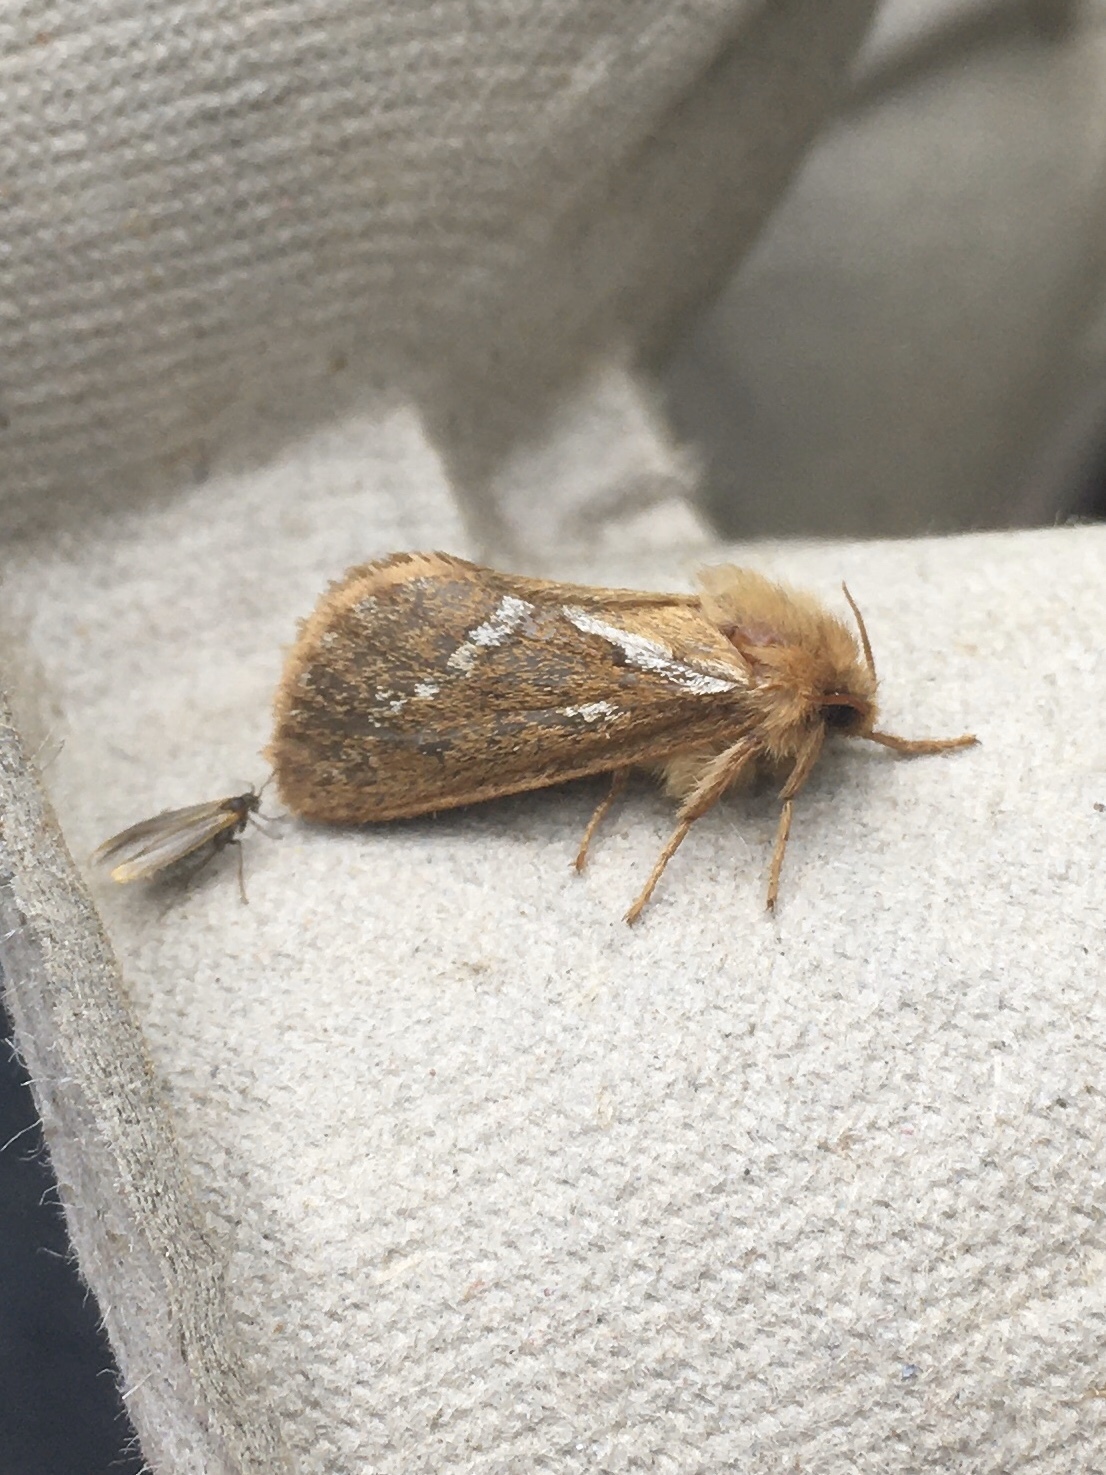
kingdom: Animalia
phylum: Arthropoda
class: Insecta
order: Lepidoptera
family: Hepialidae
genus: Korscheltellus
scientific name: Korscheltellus lupulina
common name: Common swift
